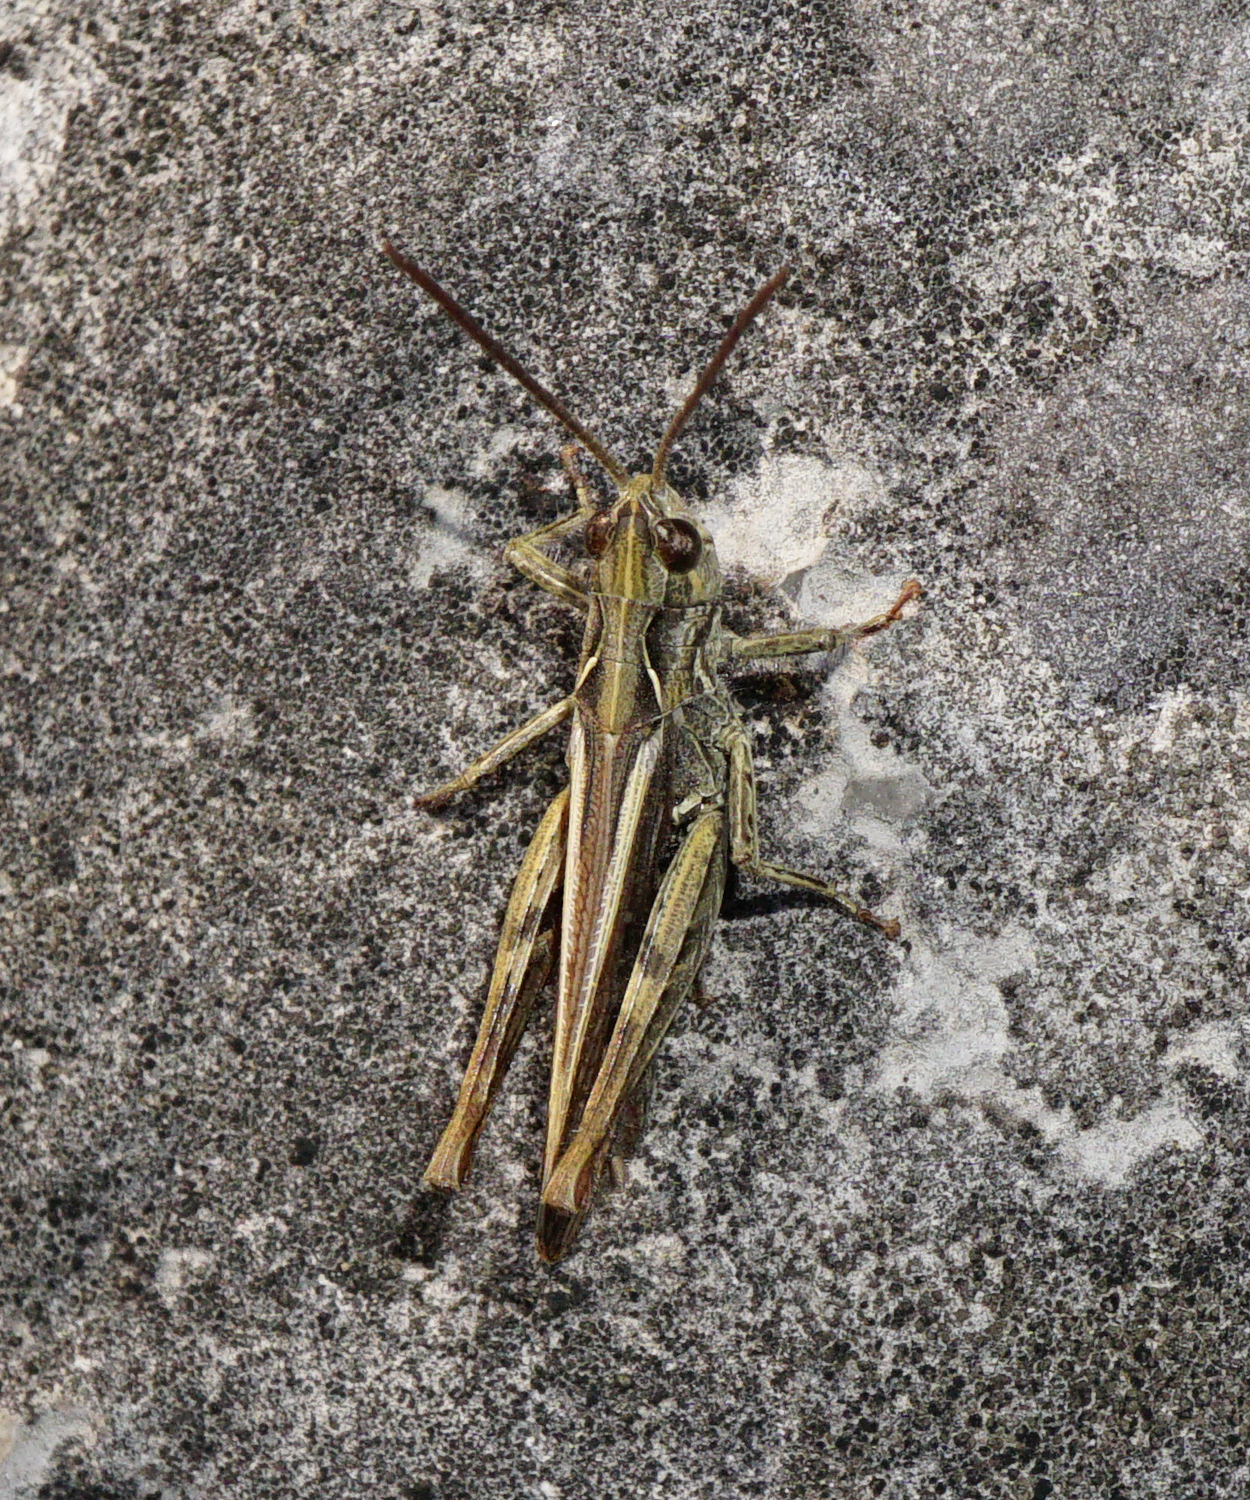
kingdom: Animalia
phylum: Arthropoda
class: Insecta
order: Orthoptera
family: Acrididae
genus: Glyptobothrus
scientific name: Glyptobothrus
